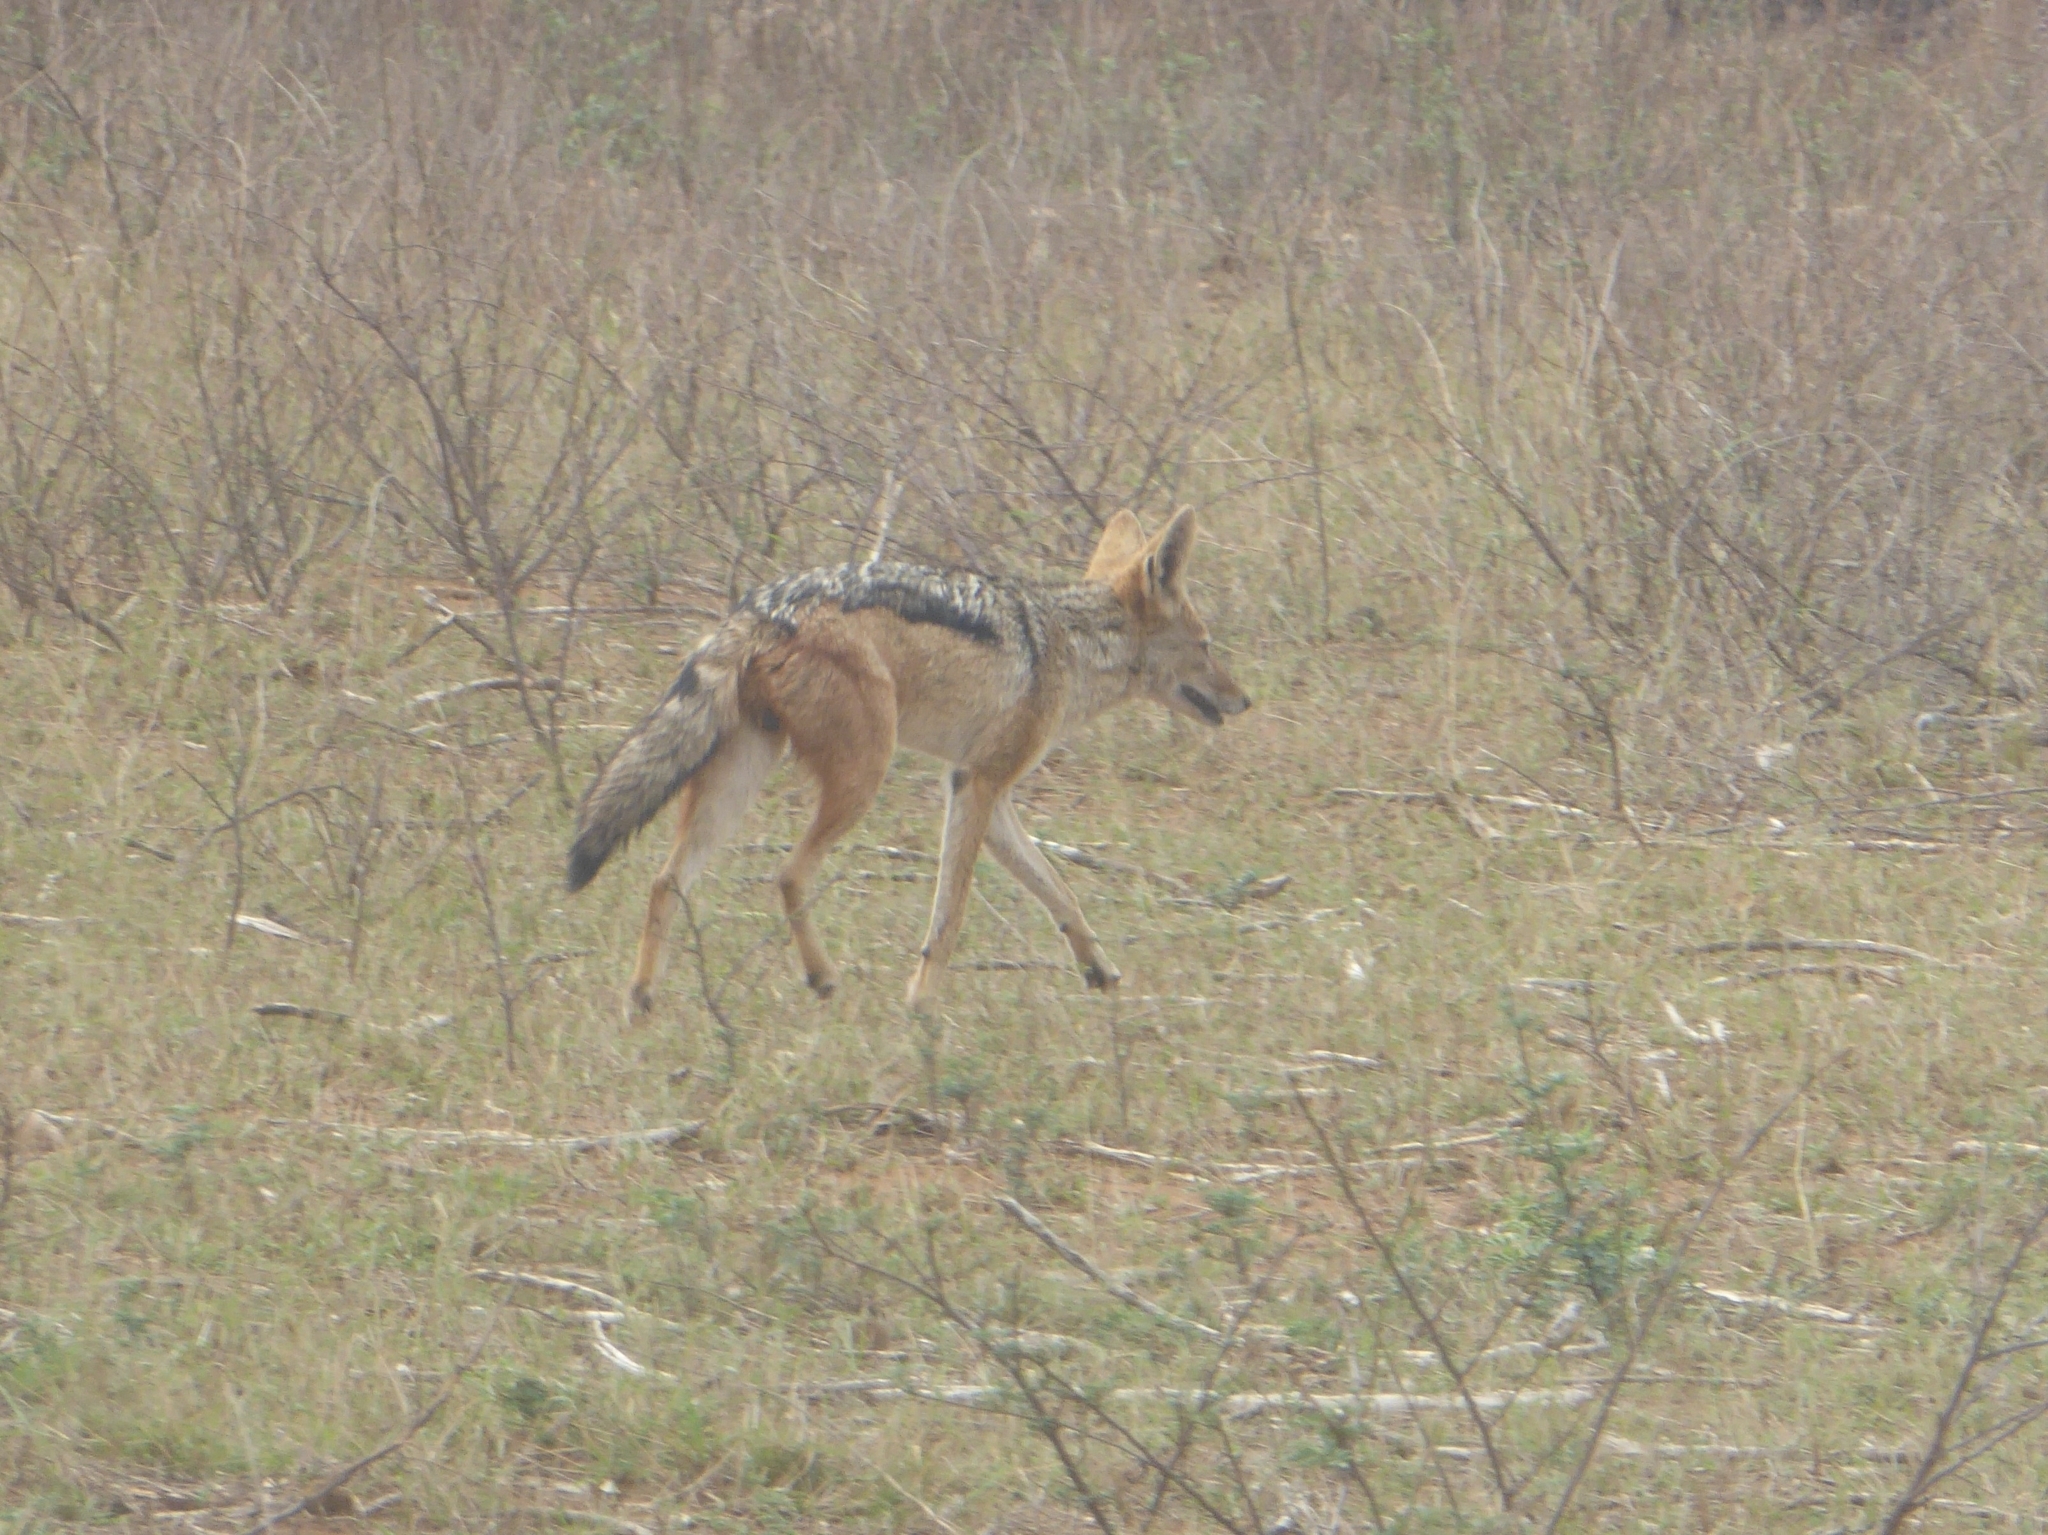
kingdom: Animalia
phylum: Chordata
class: Mammalia
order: Carnivora
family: Canidae
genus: Lupulella
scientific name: Lupulella
